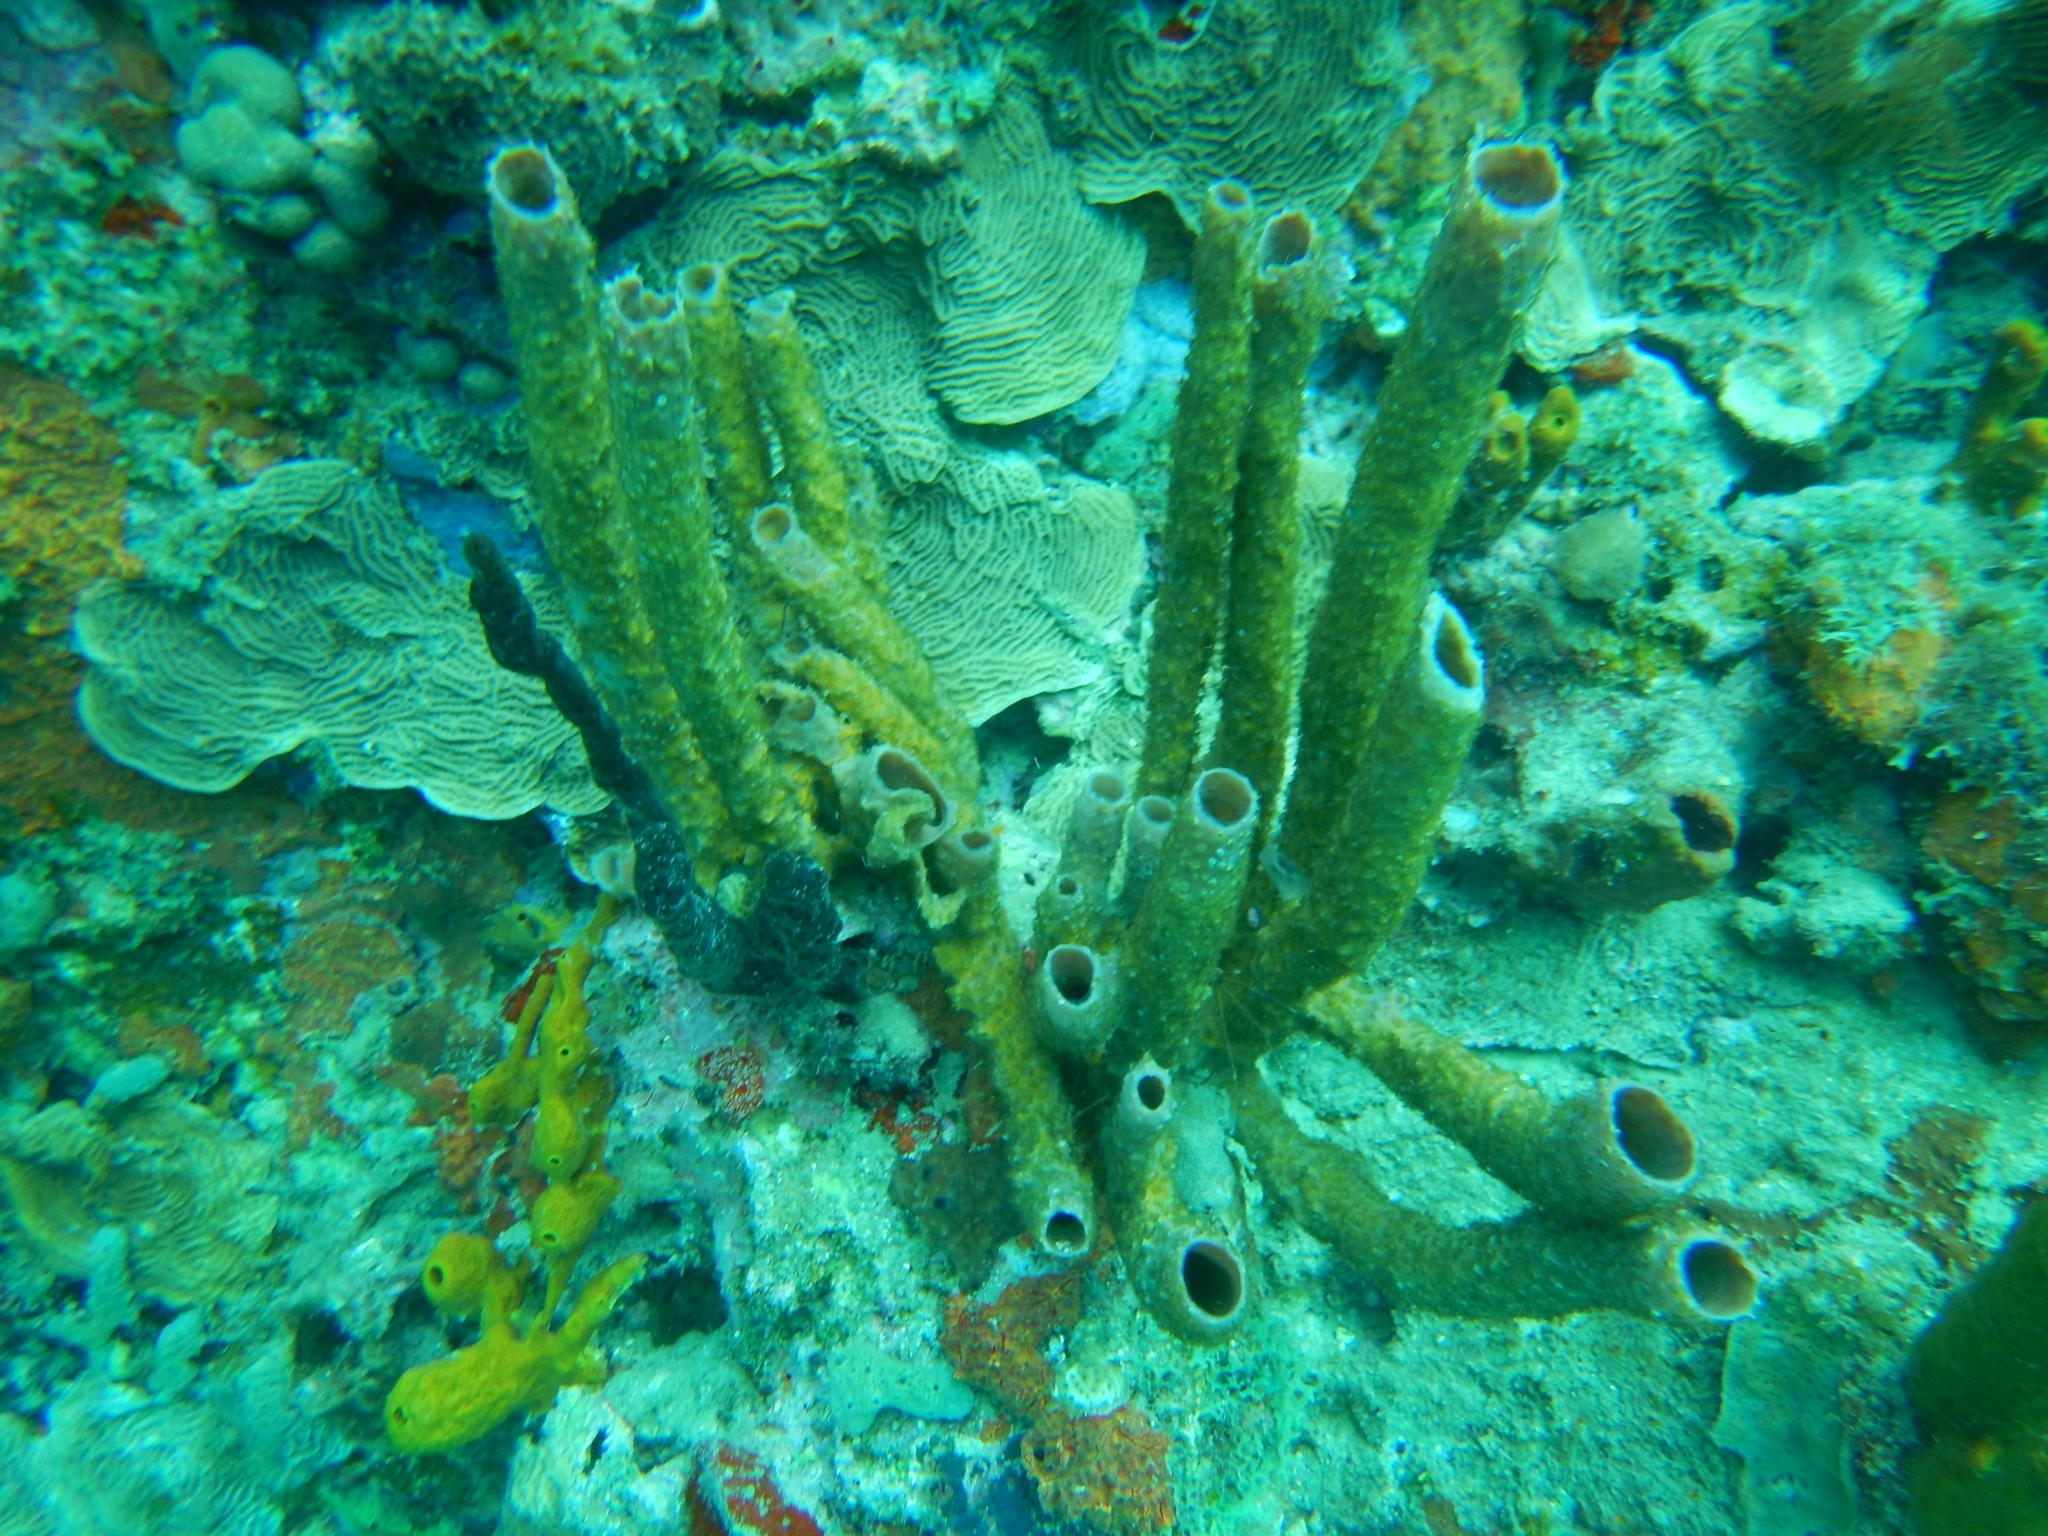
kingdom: Animalia
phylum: Porifera
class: Demospongiae
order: Haplosclerida
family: Callyspongiidae
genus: Callyspongia
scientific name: Callyspongia aculeata
